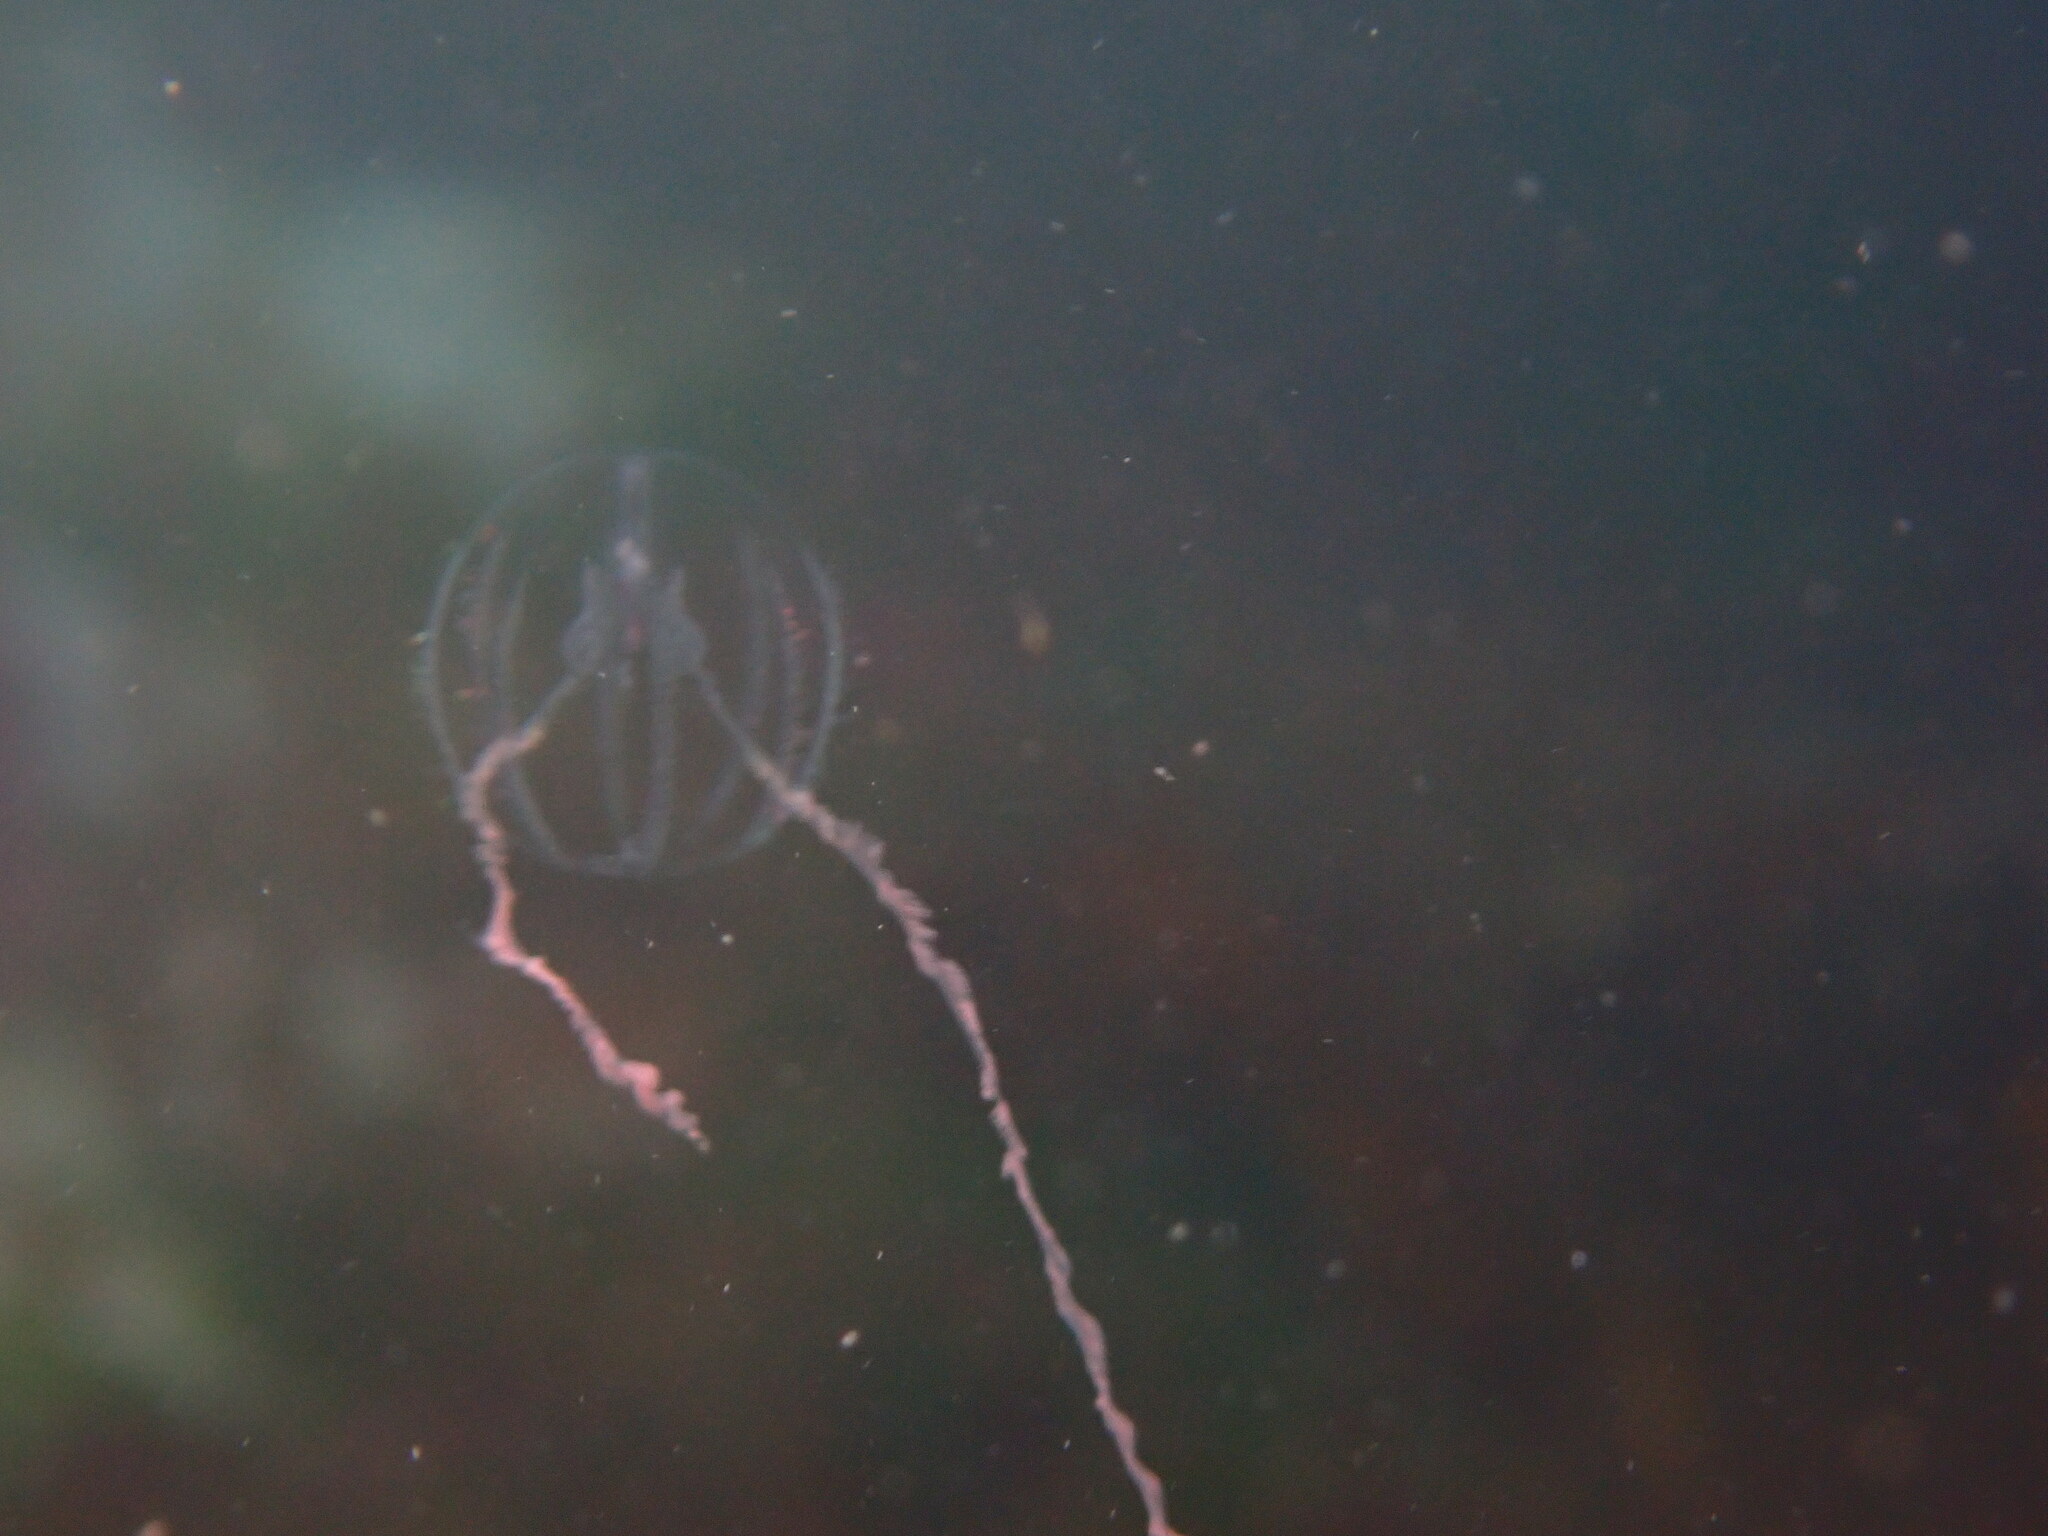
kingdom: Animalia
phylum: Ctenophora
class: Tentaculata
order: Cydippida
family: Pleurobrachiidae
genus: Pleurobrachia
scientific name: Pleurobrachia bachei
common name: Pacific sea gooseberry
